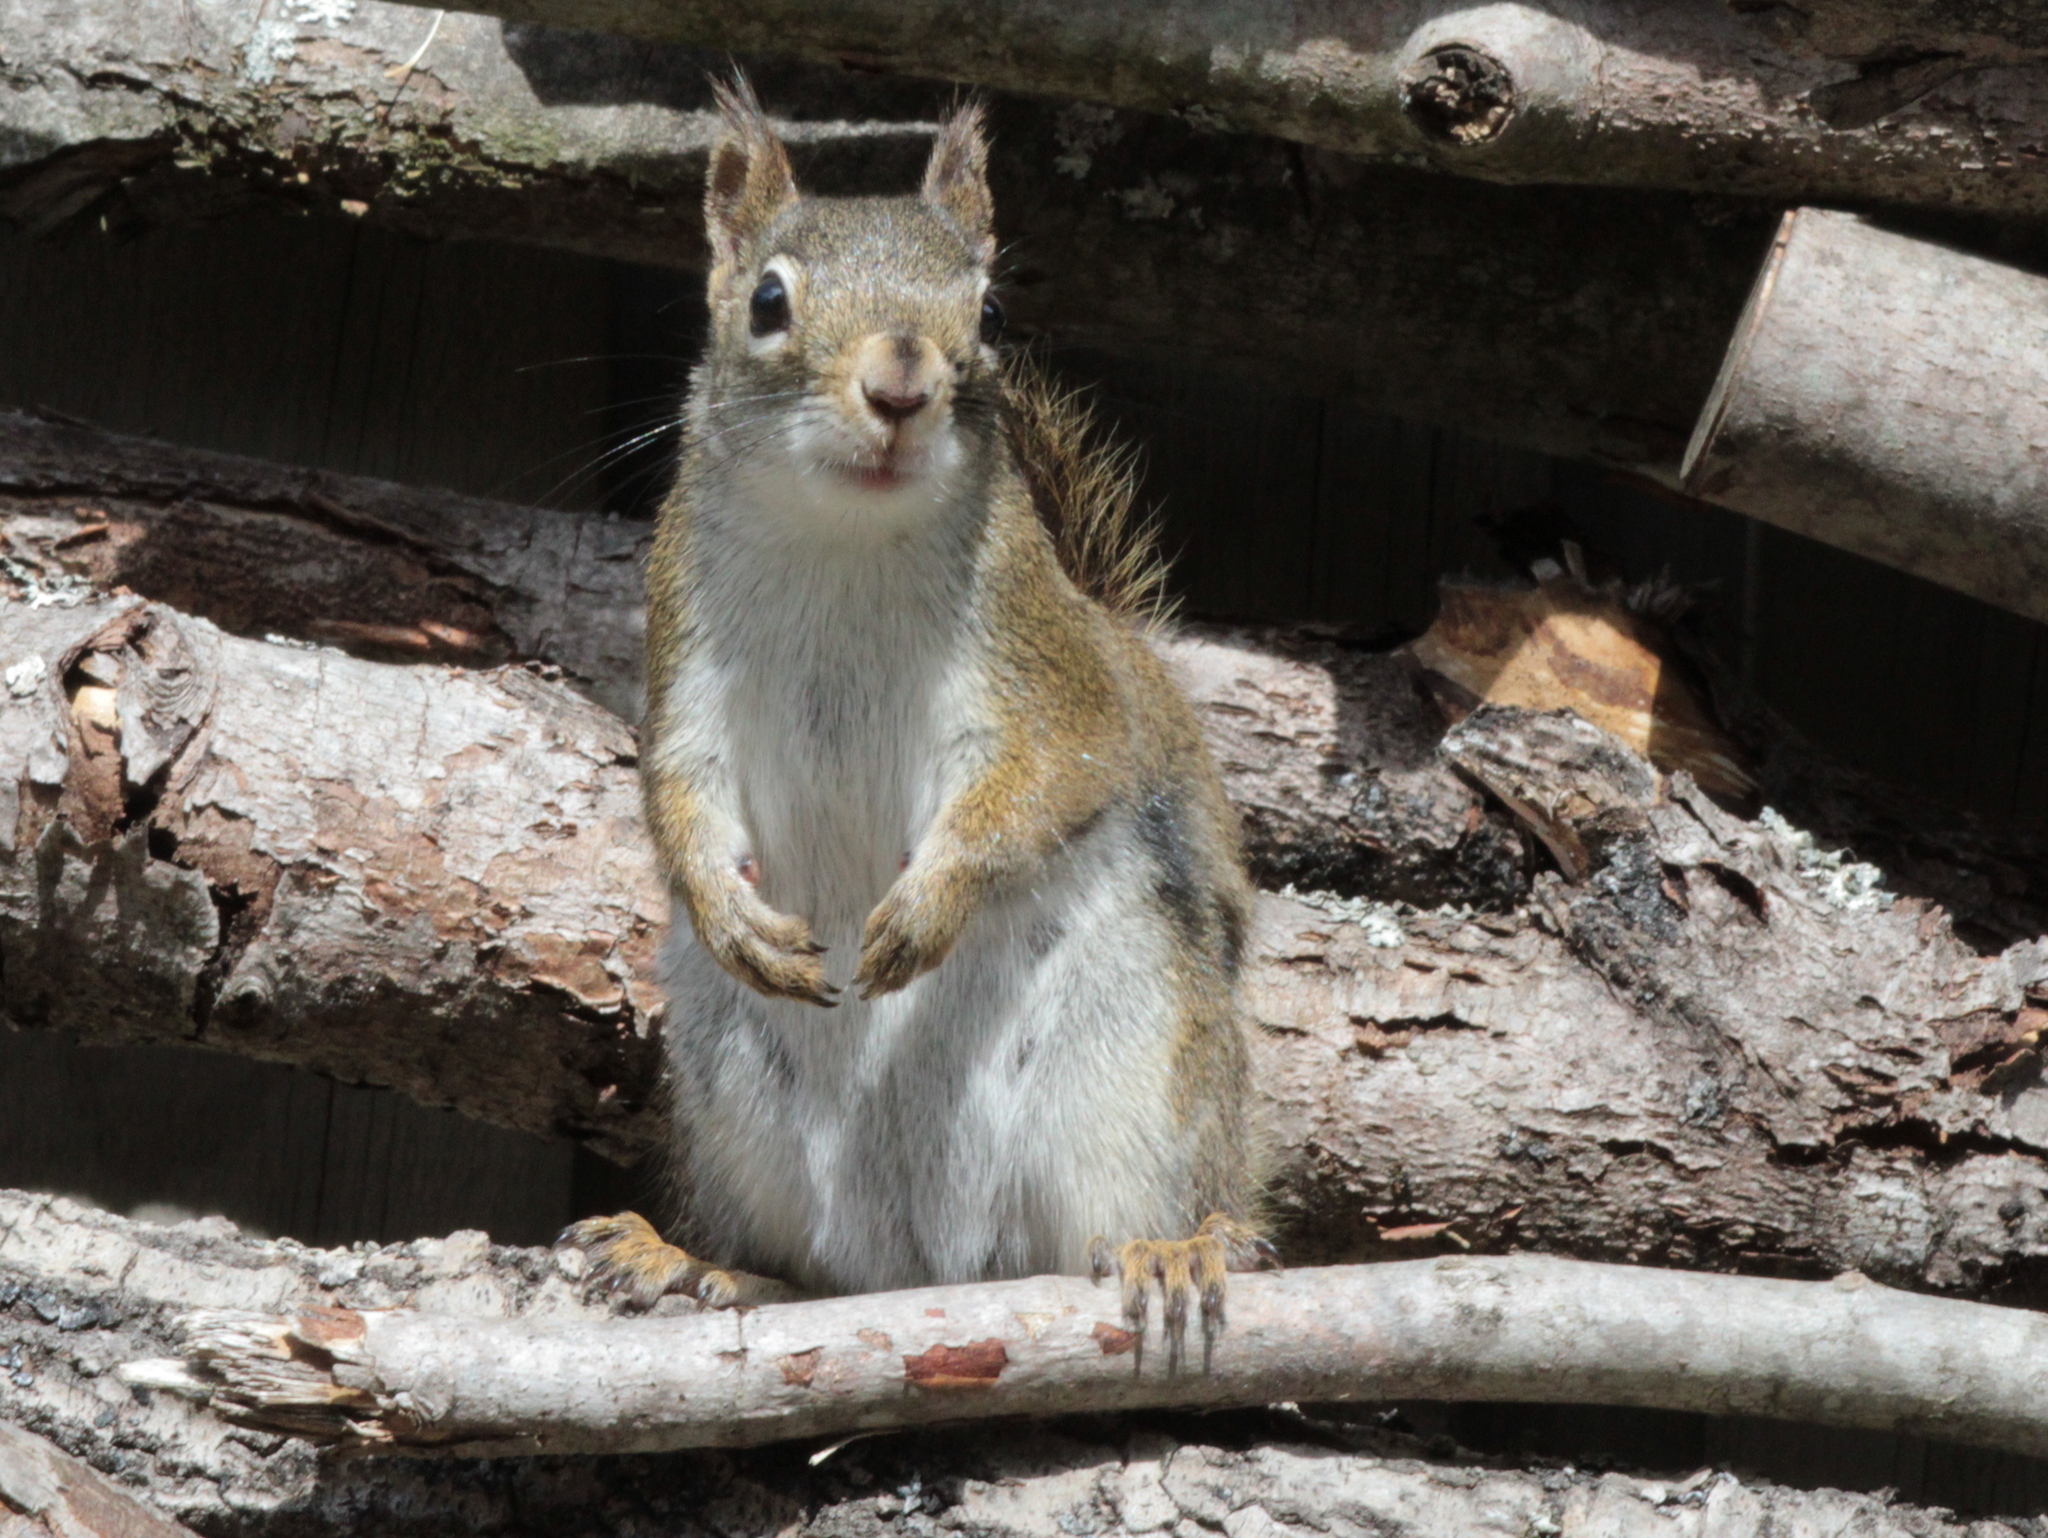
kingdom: Animalia
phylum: Chordata
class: Mammalia
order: Rodentia
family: Sciuridae
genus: Tamiasciurus
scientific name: Tamiasciurus hudsonicus
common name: Red squirrel
